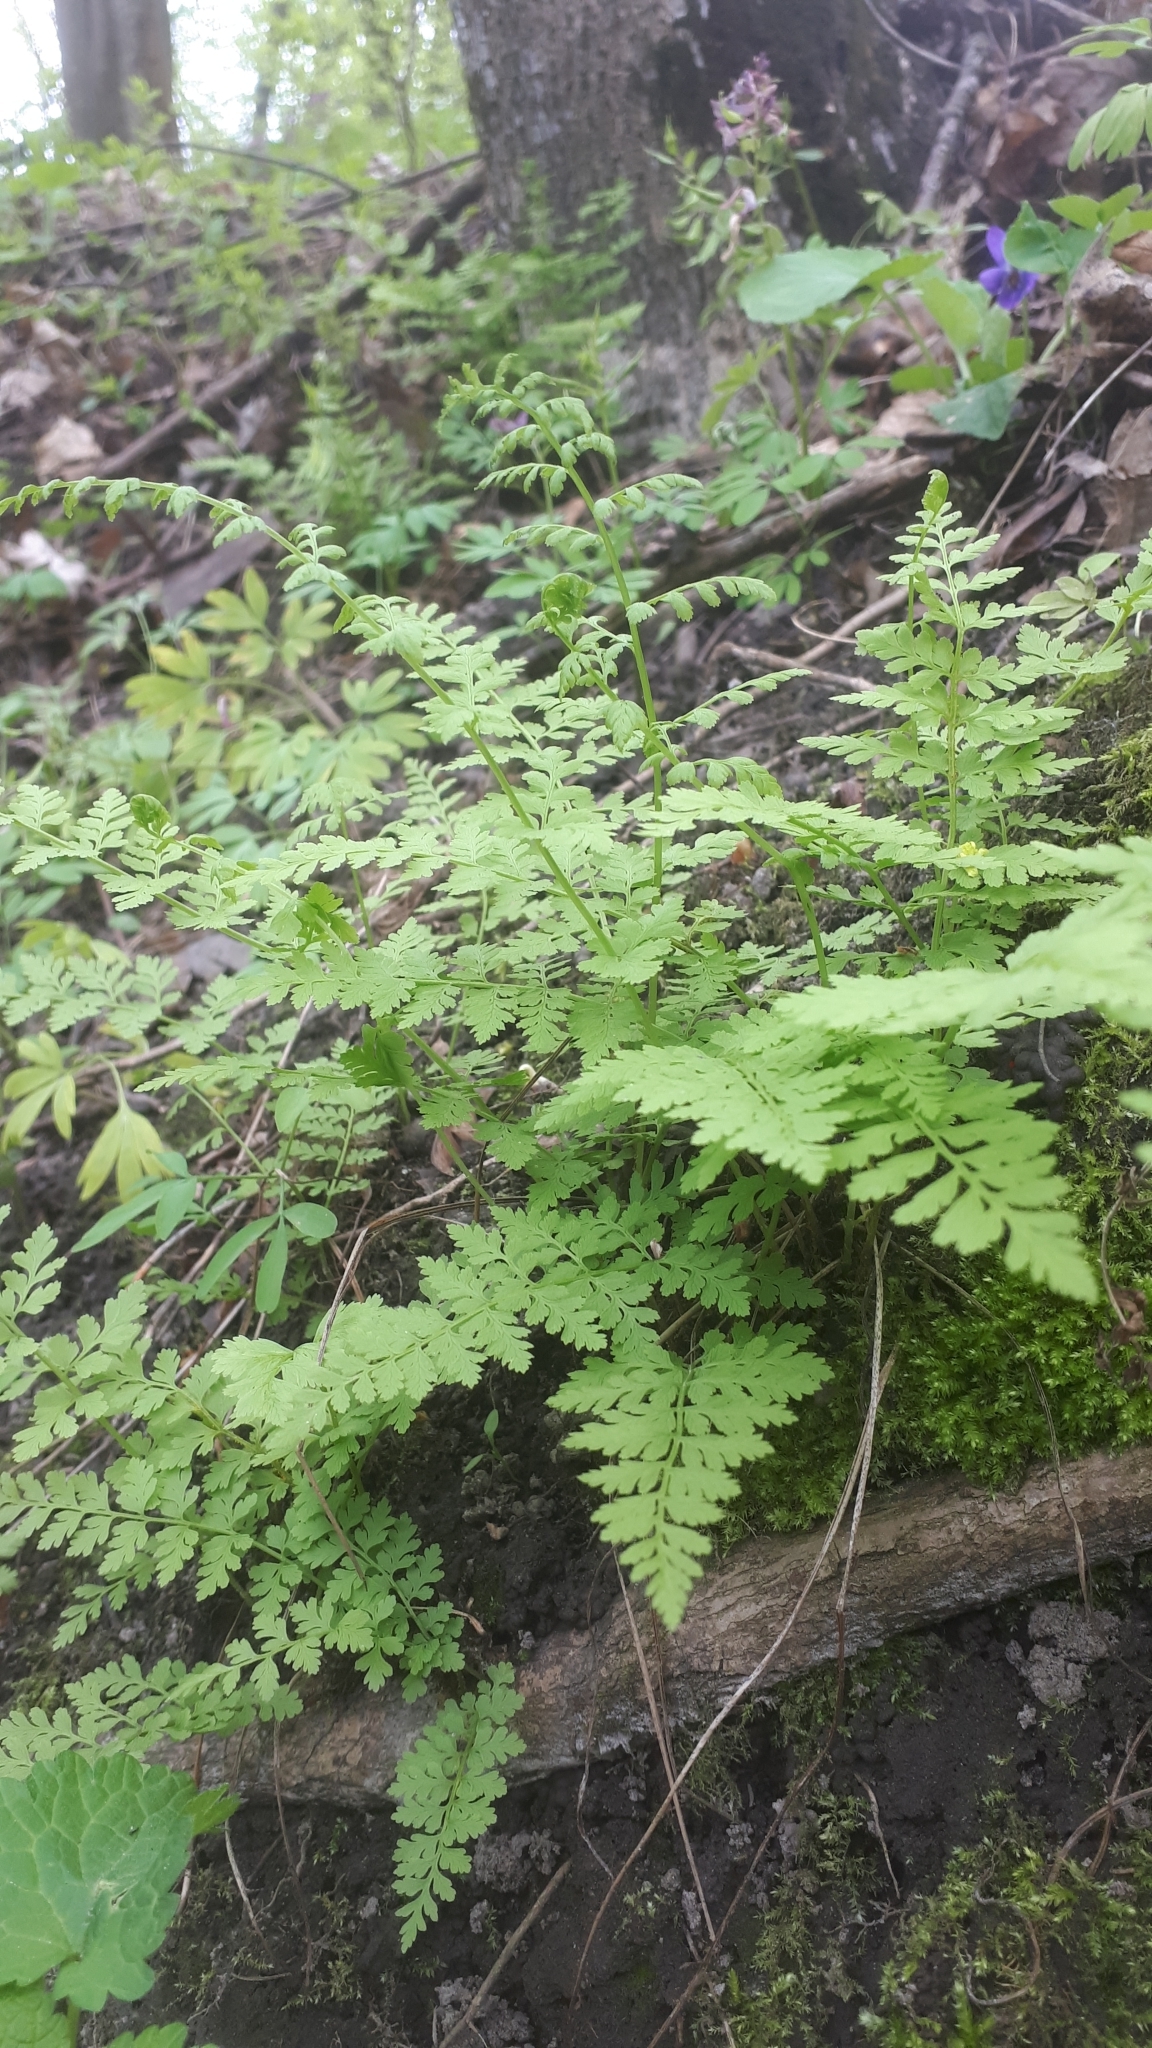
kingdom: Plantae
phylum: Tracheophyta
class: Polypodiopsida
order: Polypodiales
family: Cystopteridaceae
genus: Cystopteris
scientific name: Cystopteris fragilis
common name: Brittle bladder fern
